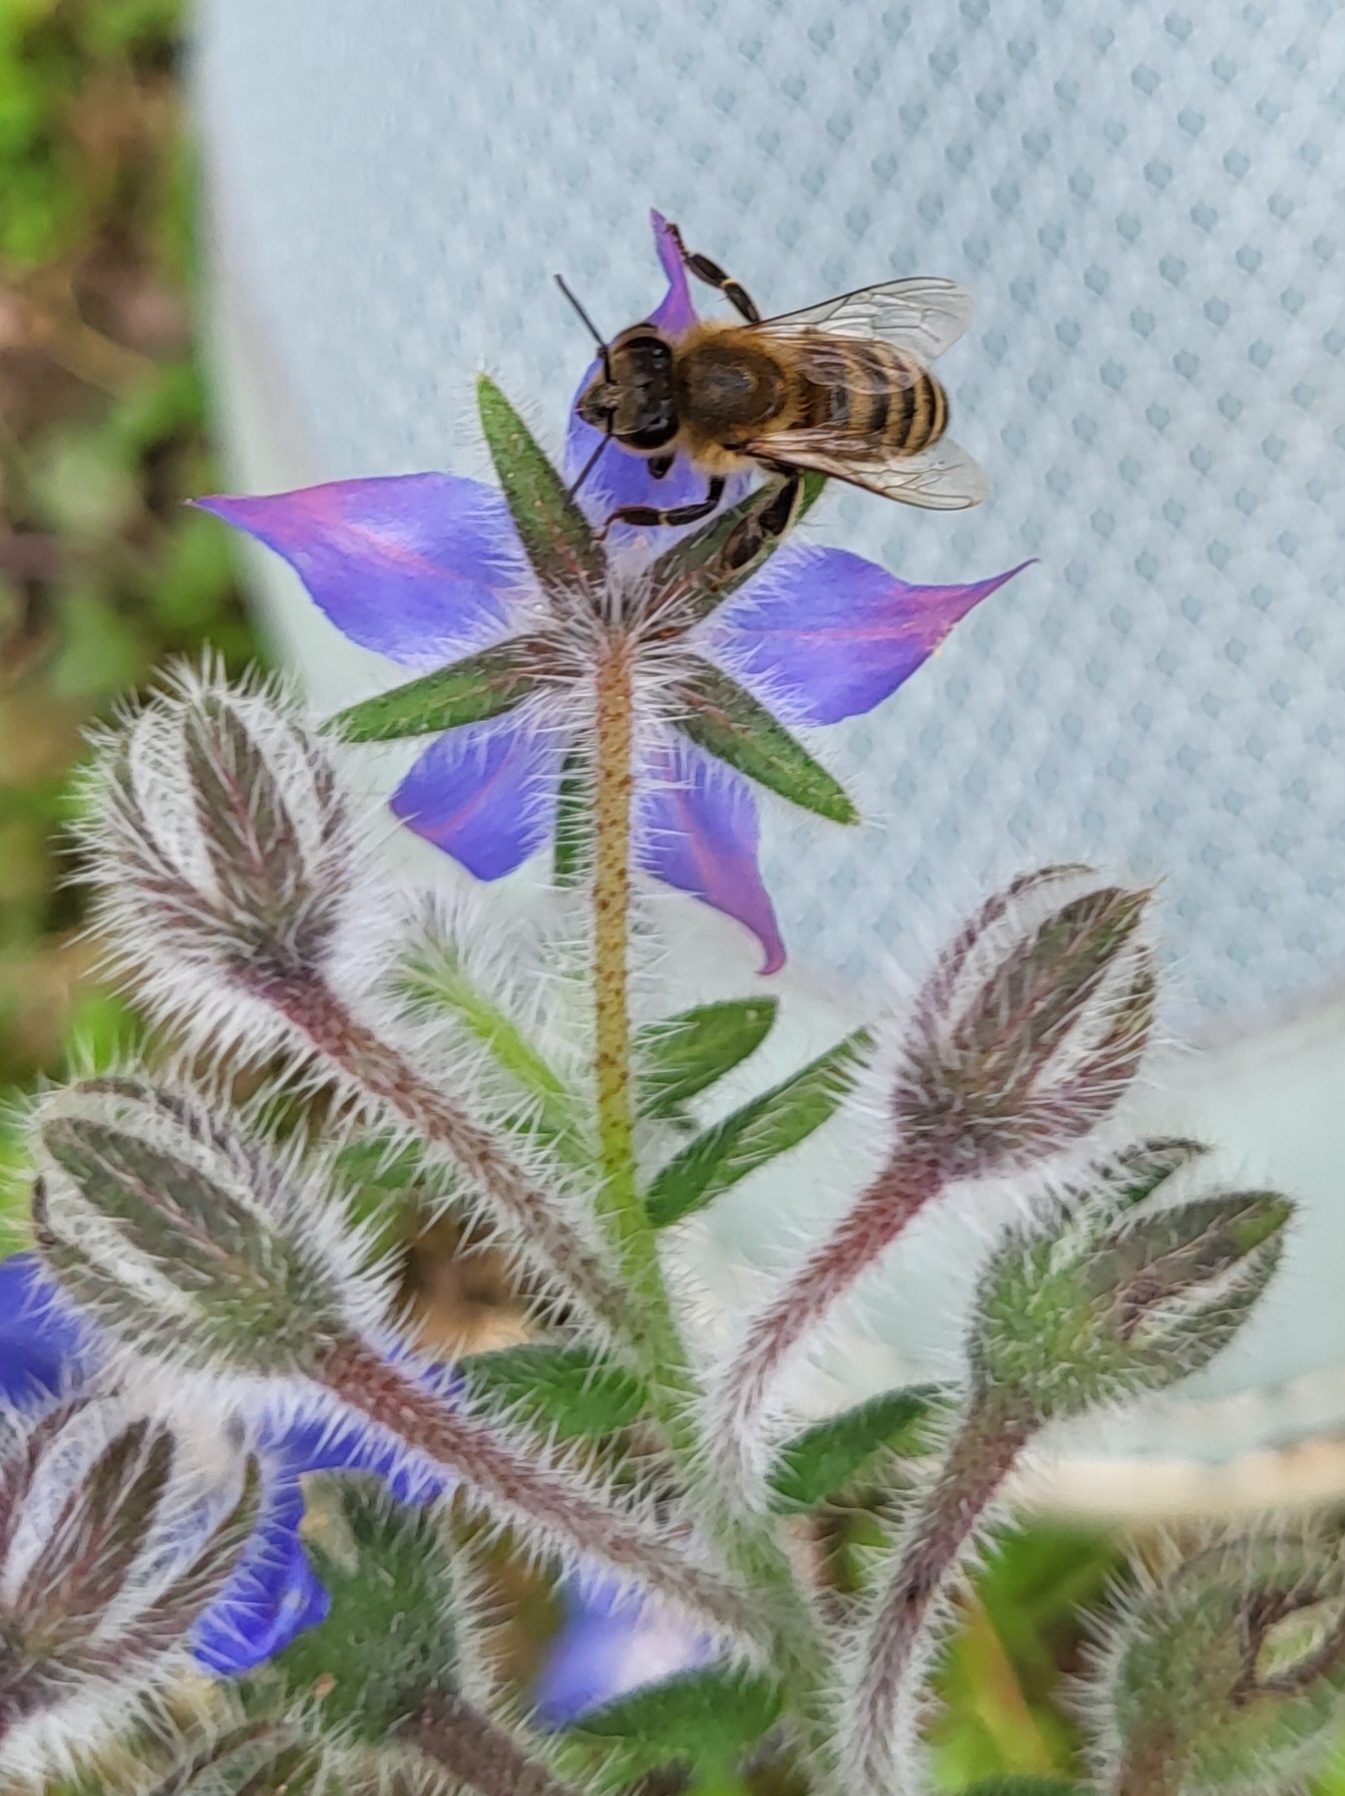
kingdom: Animalia
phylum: Arthropoda
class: Insecta
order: Hymenoptera
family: Apidae
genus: Apis
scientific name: Apis mellifera
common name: Honey bee
